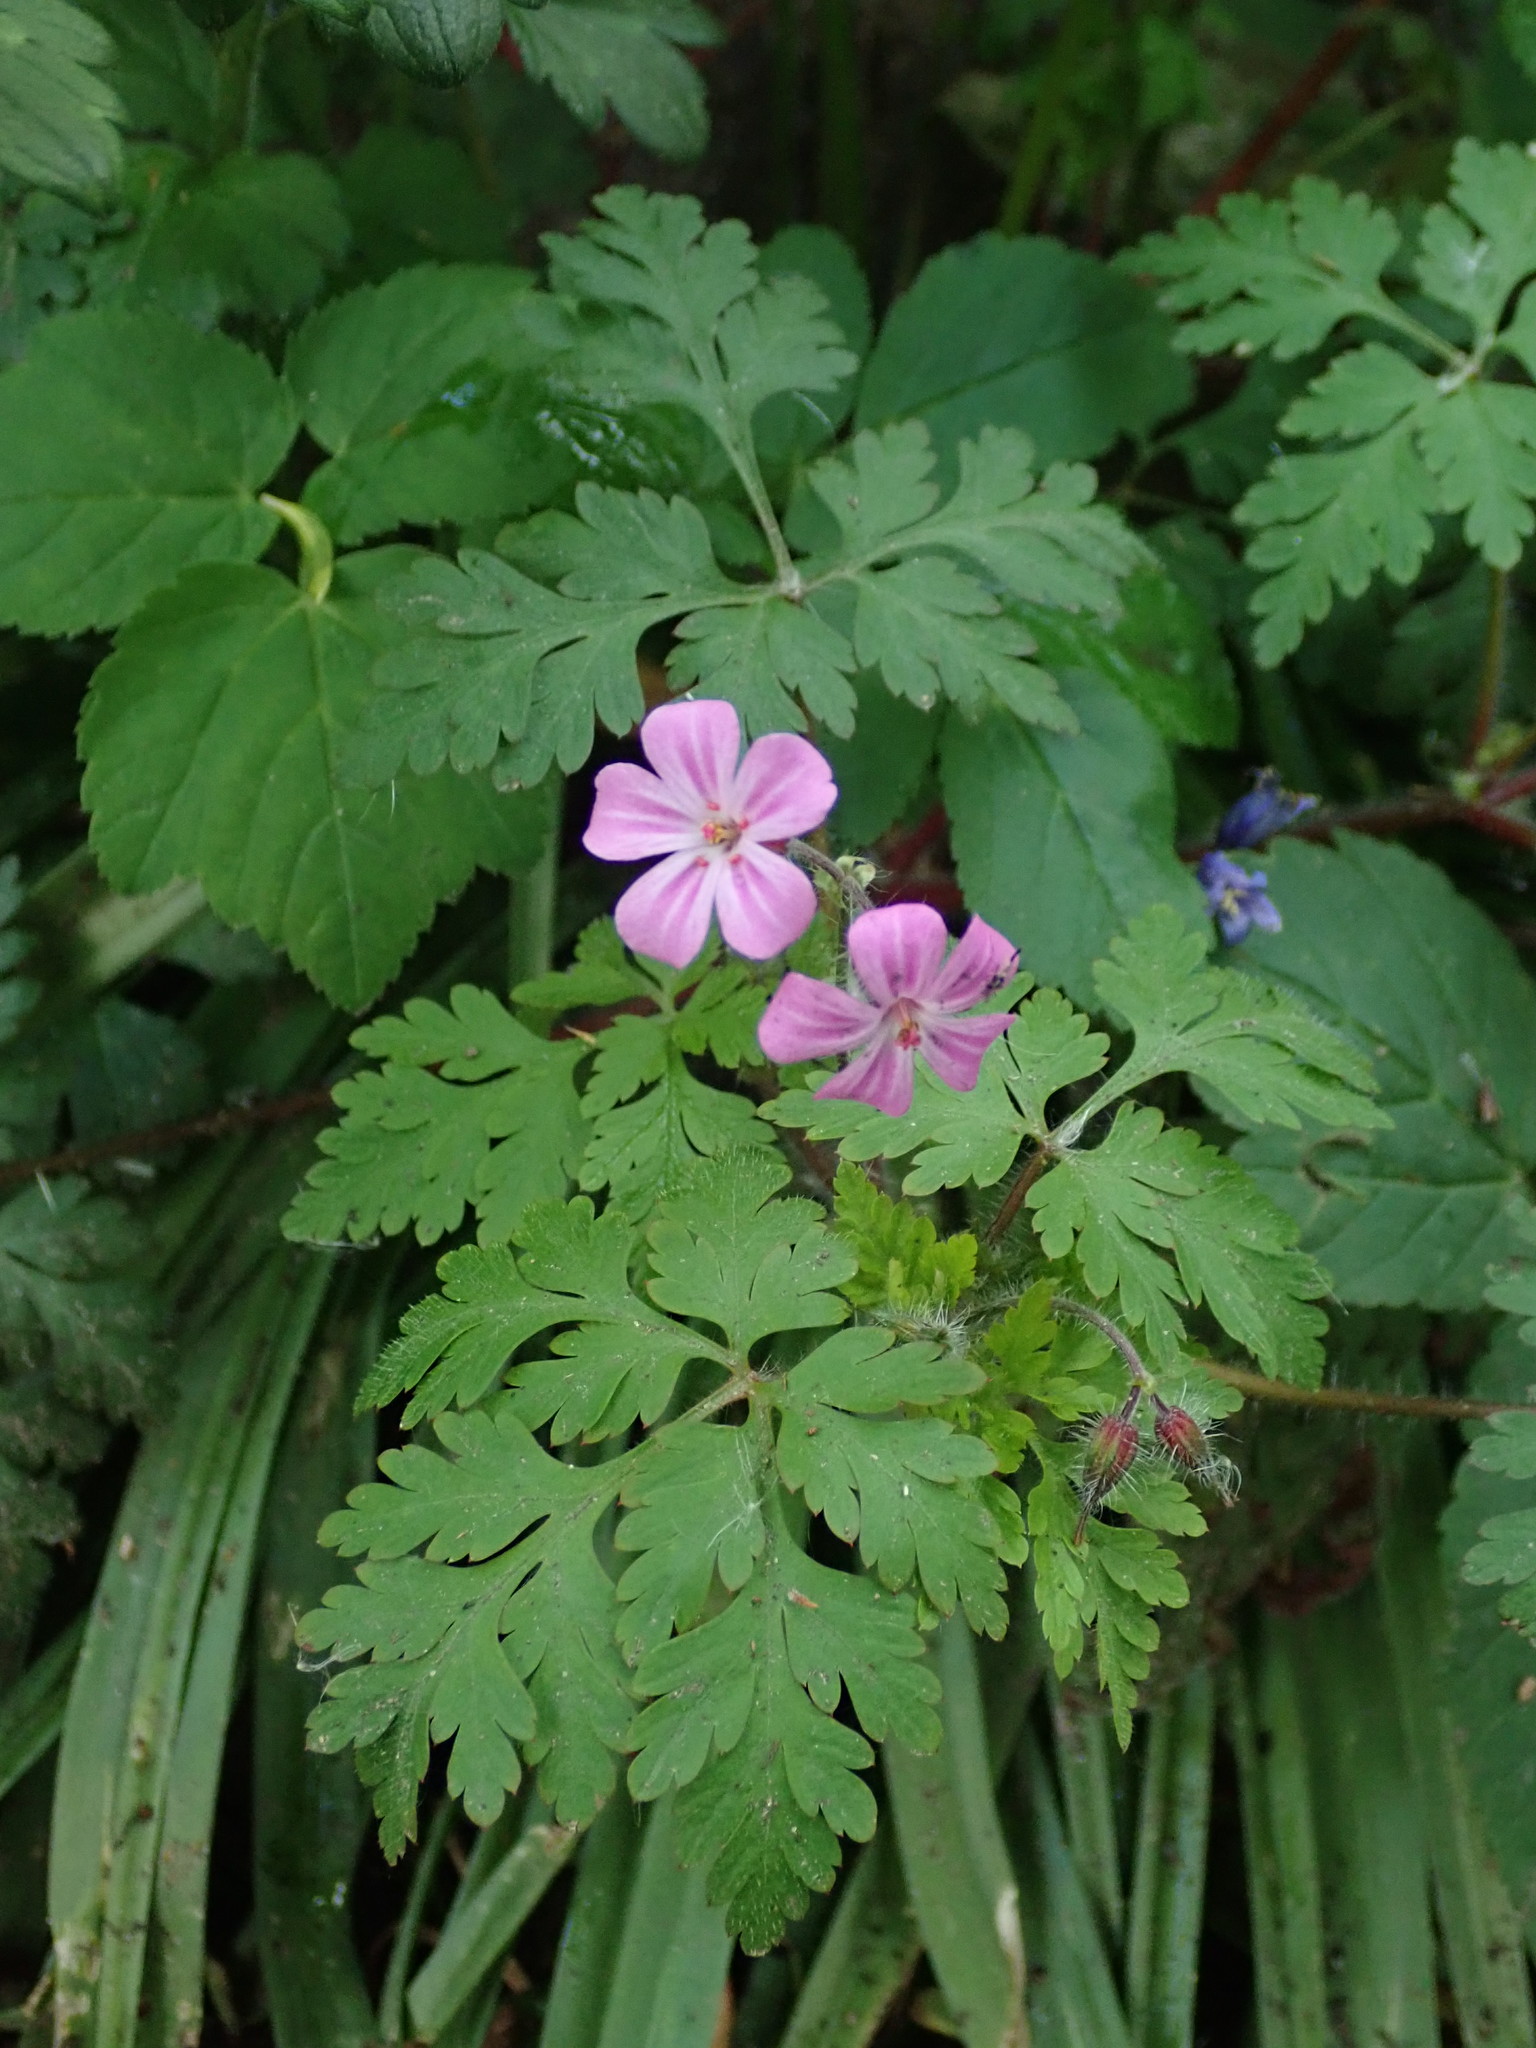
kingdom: Plantae
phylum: Tracheophyta
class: Magnoliopsida
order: Geraniales
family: Geraniaceae
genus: Geranium
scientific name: Geranium robertianum
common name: Herb-robert
